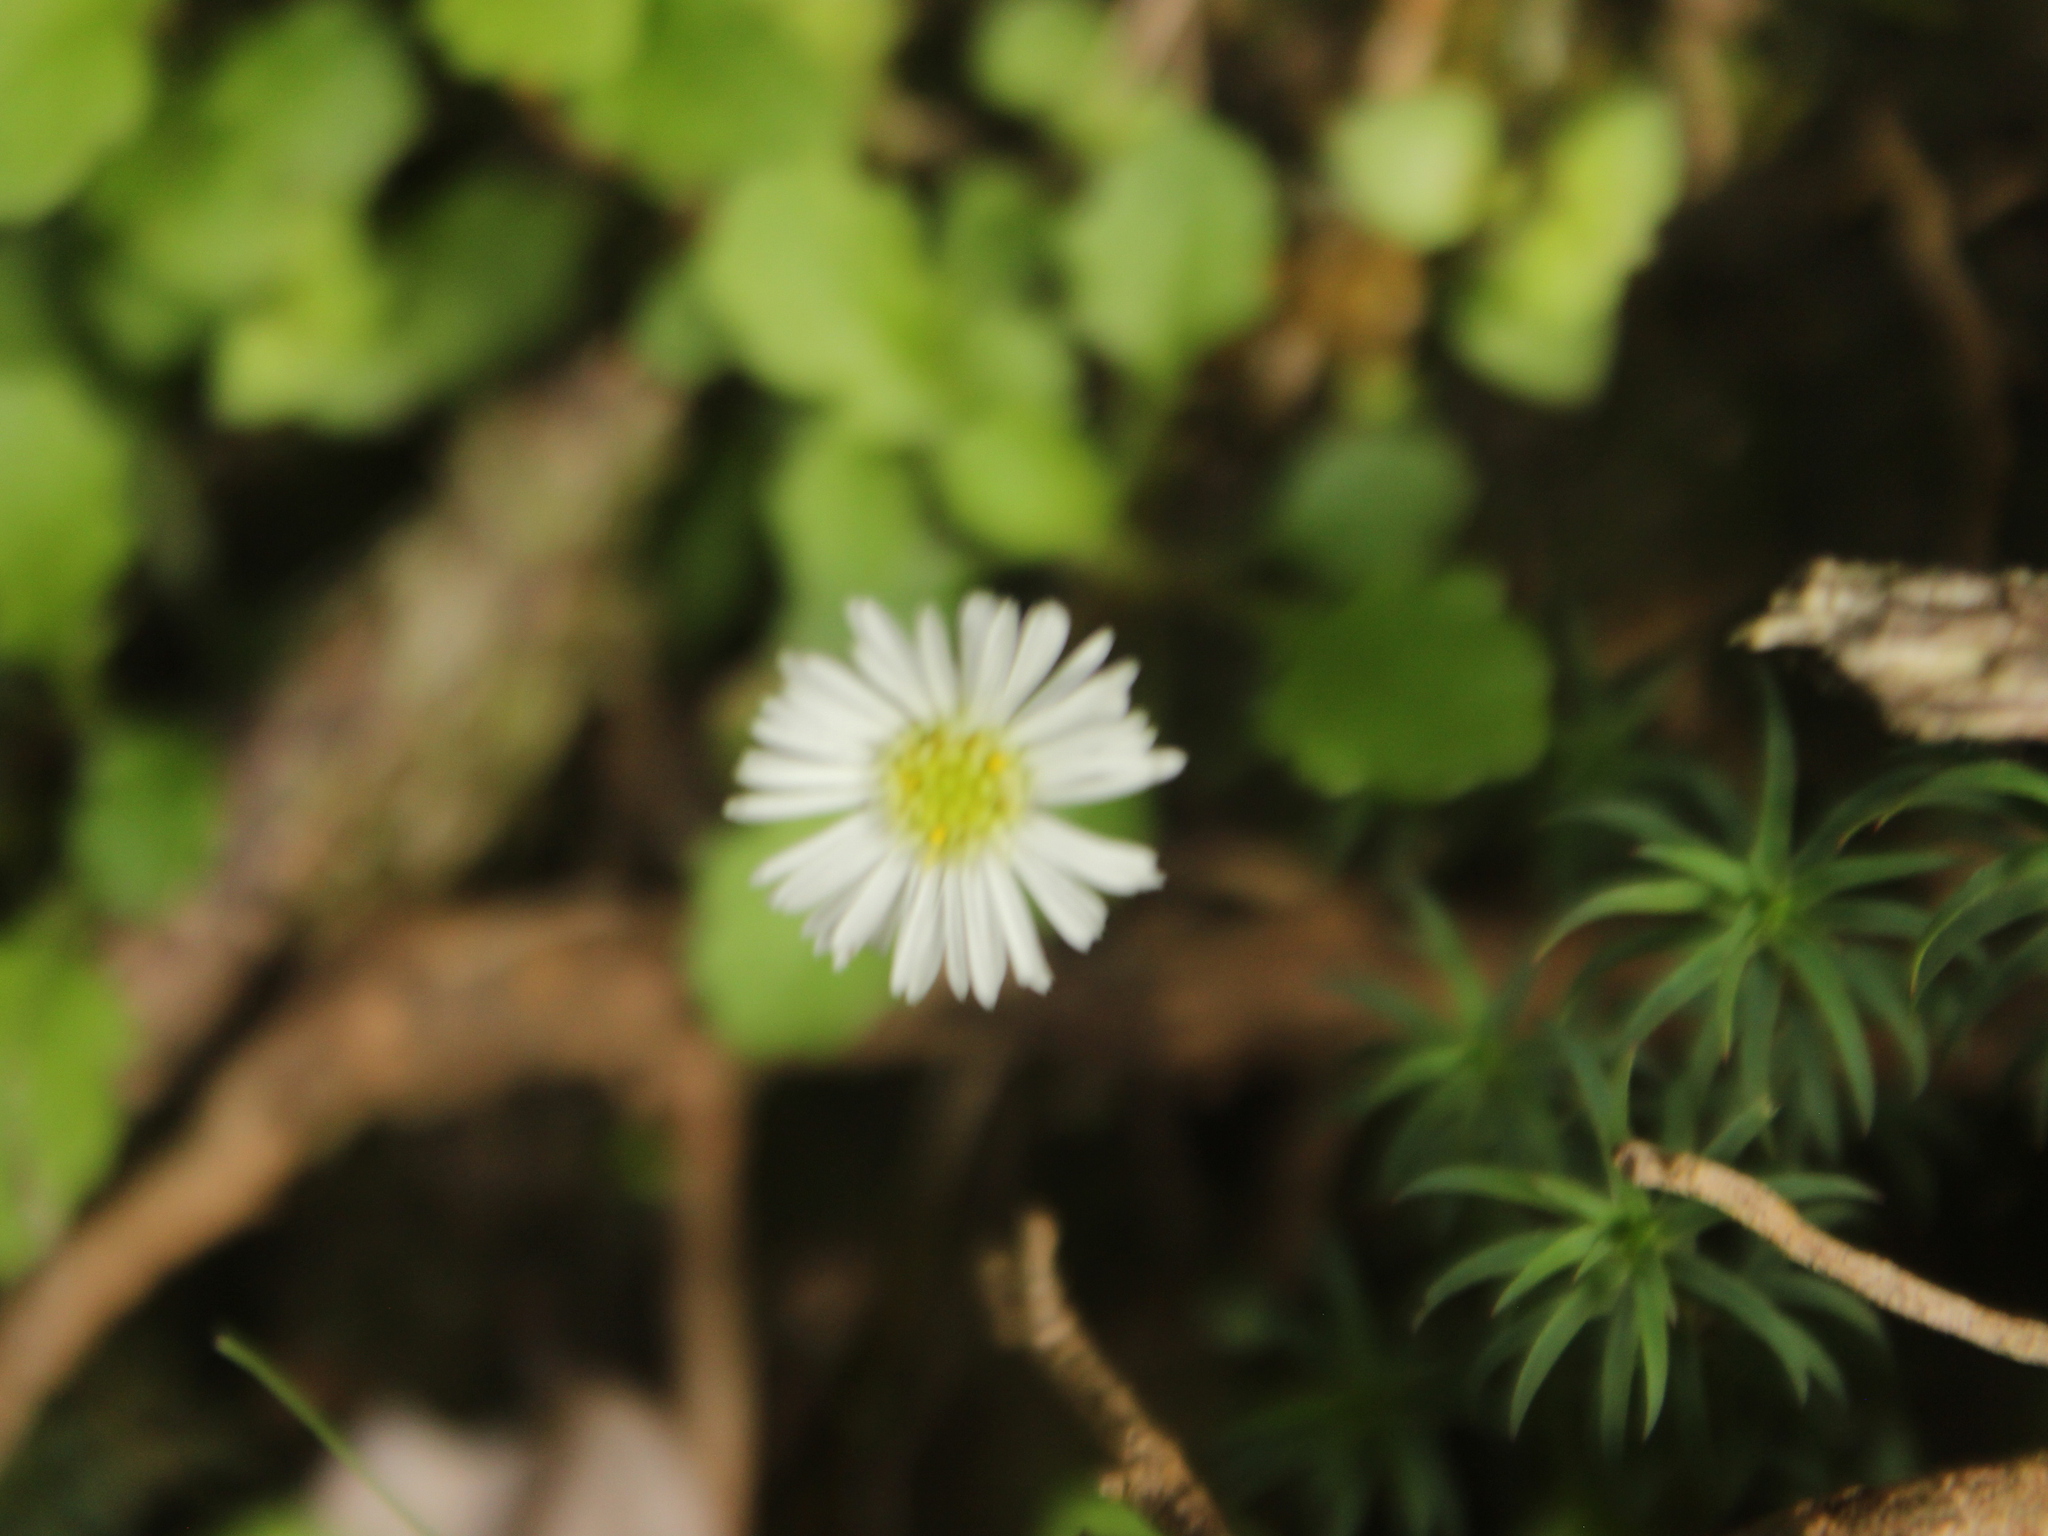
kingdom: Plantae
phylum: Tracheophyta
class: Magnoliopsida
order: Asterales
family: Asteraceae
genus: Lagenophora
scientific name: Lagenophora pumila
